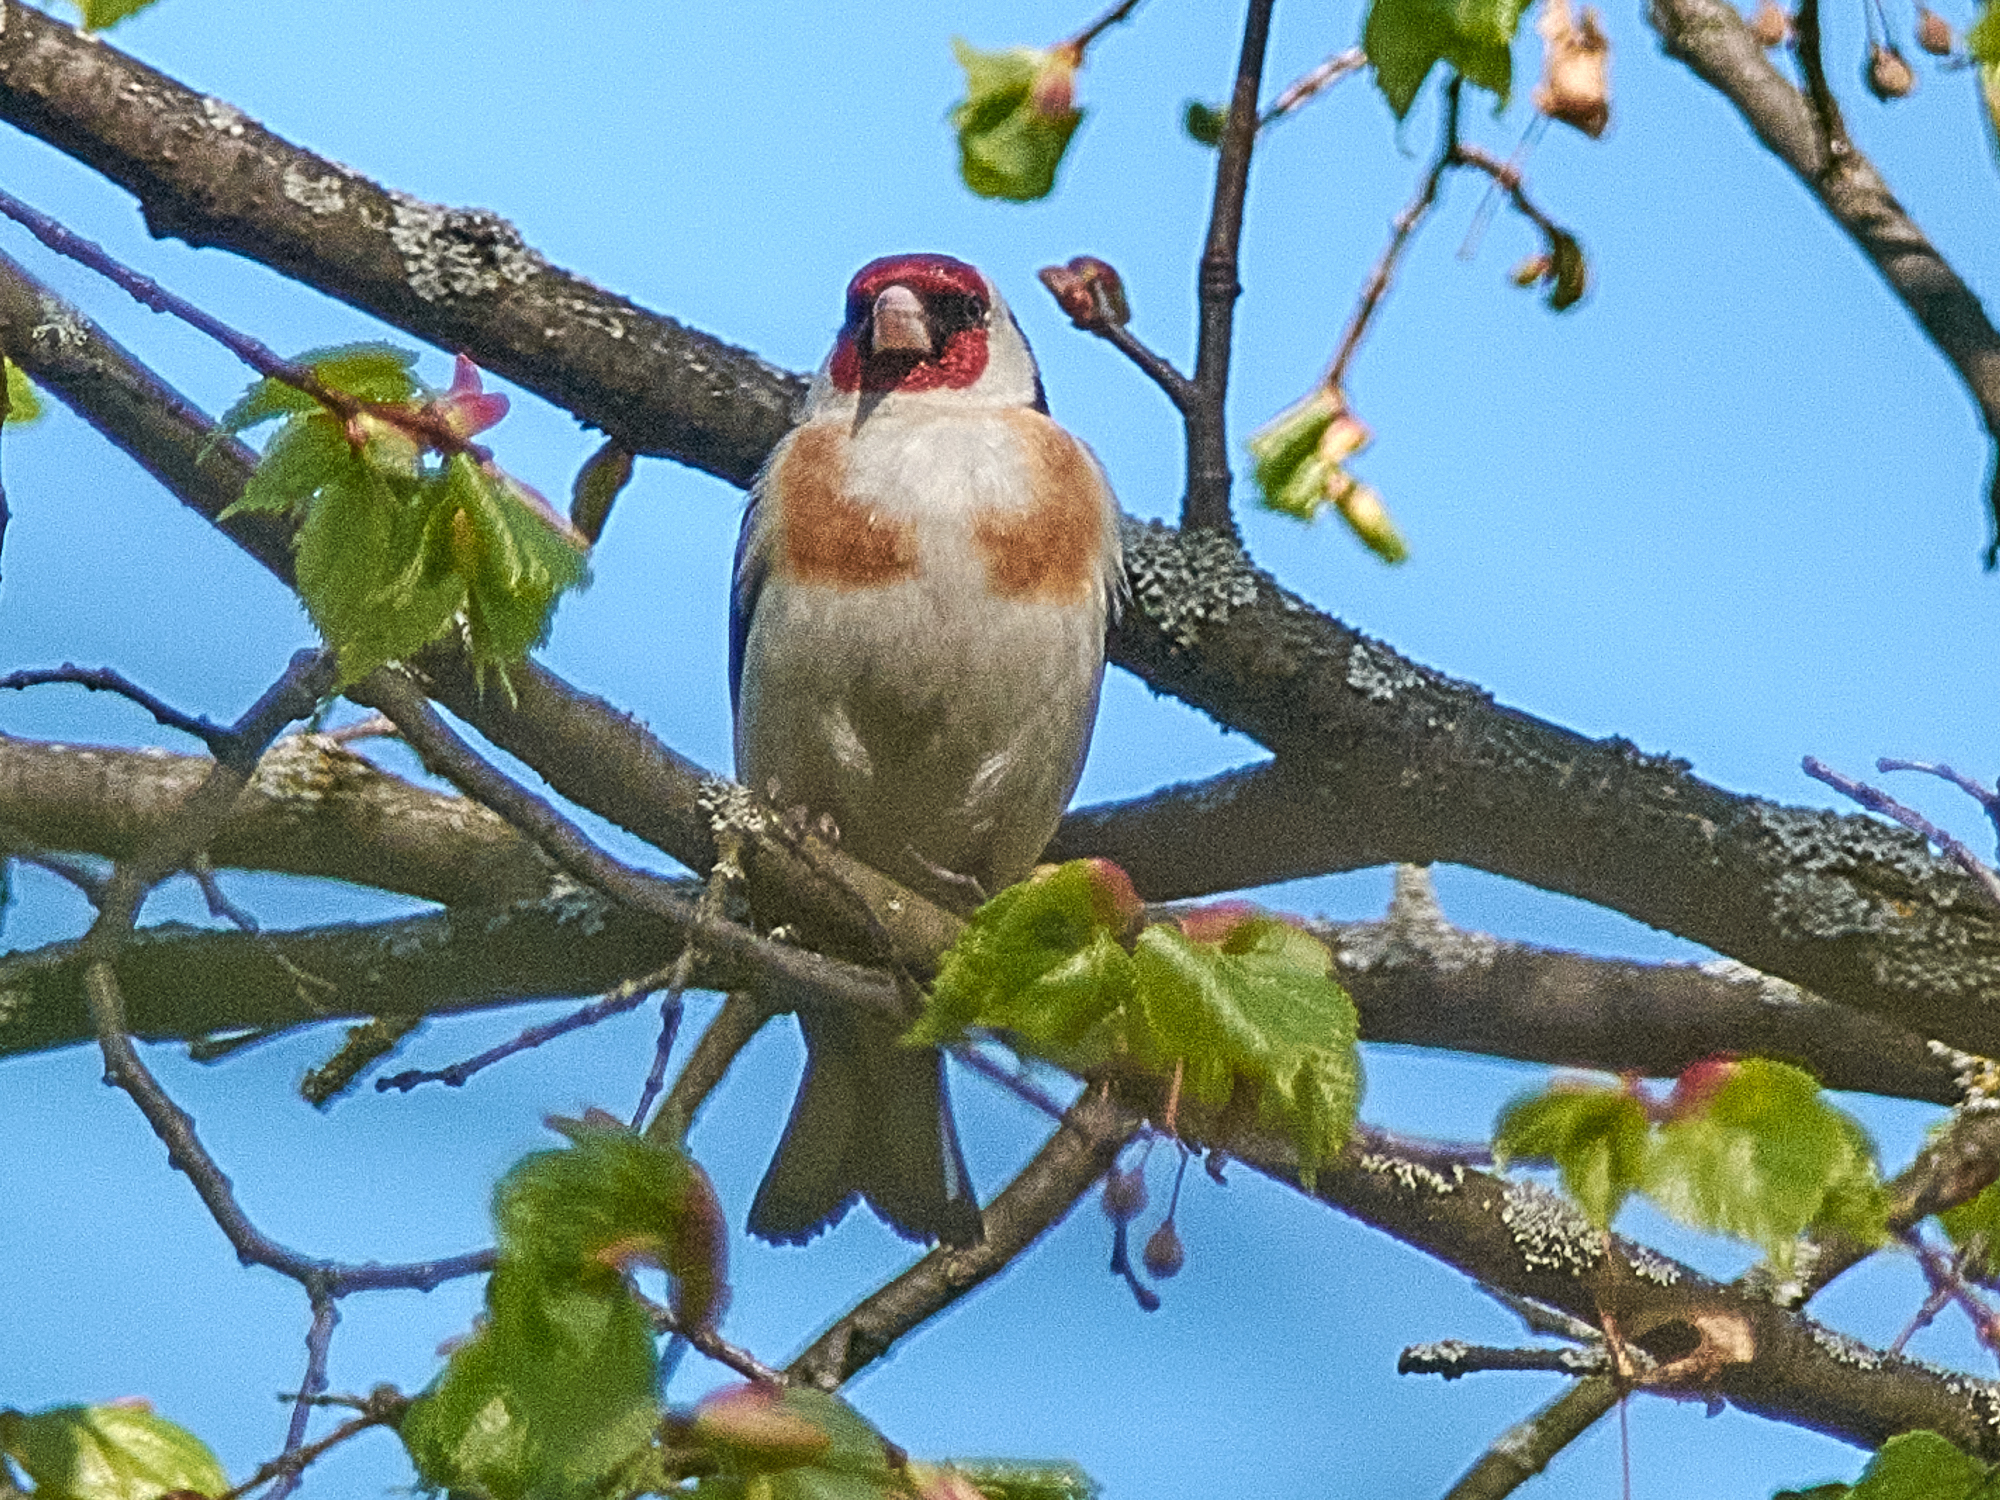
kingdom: Animalia
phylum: Chordata
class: Aves
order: Passeriformes
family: Fringillidae
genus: Carduelis
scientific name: Carduelis carduelis
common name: European goldfinch
